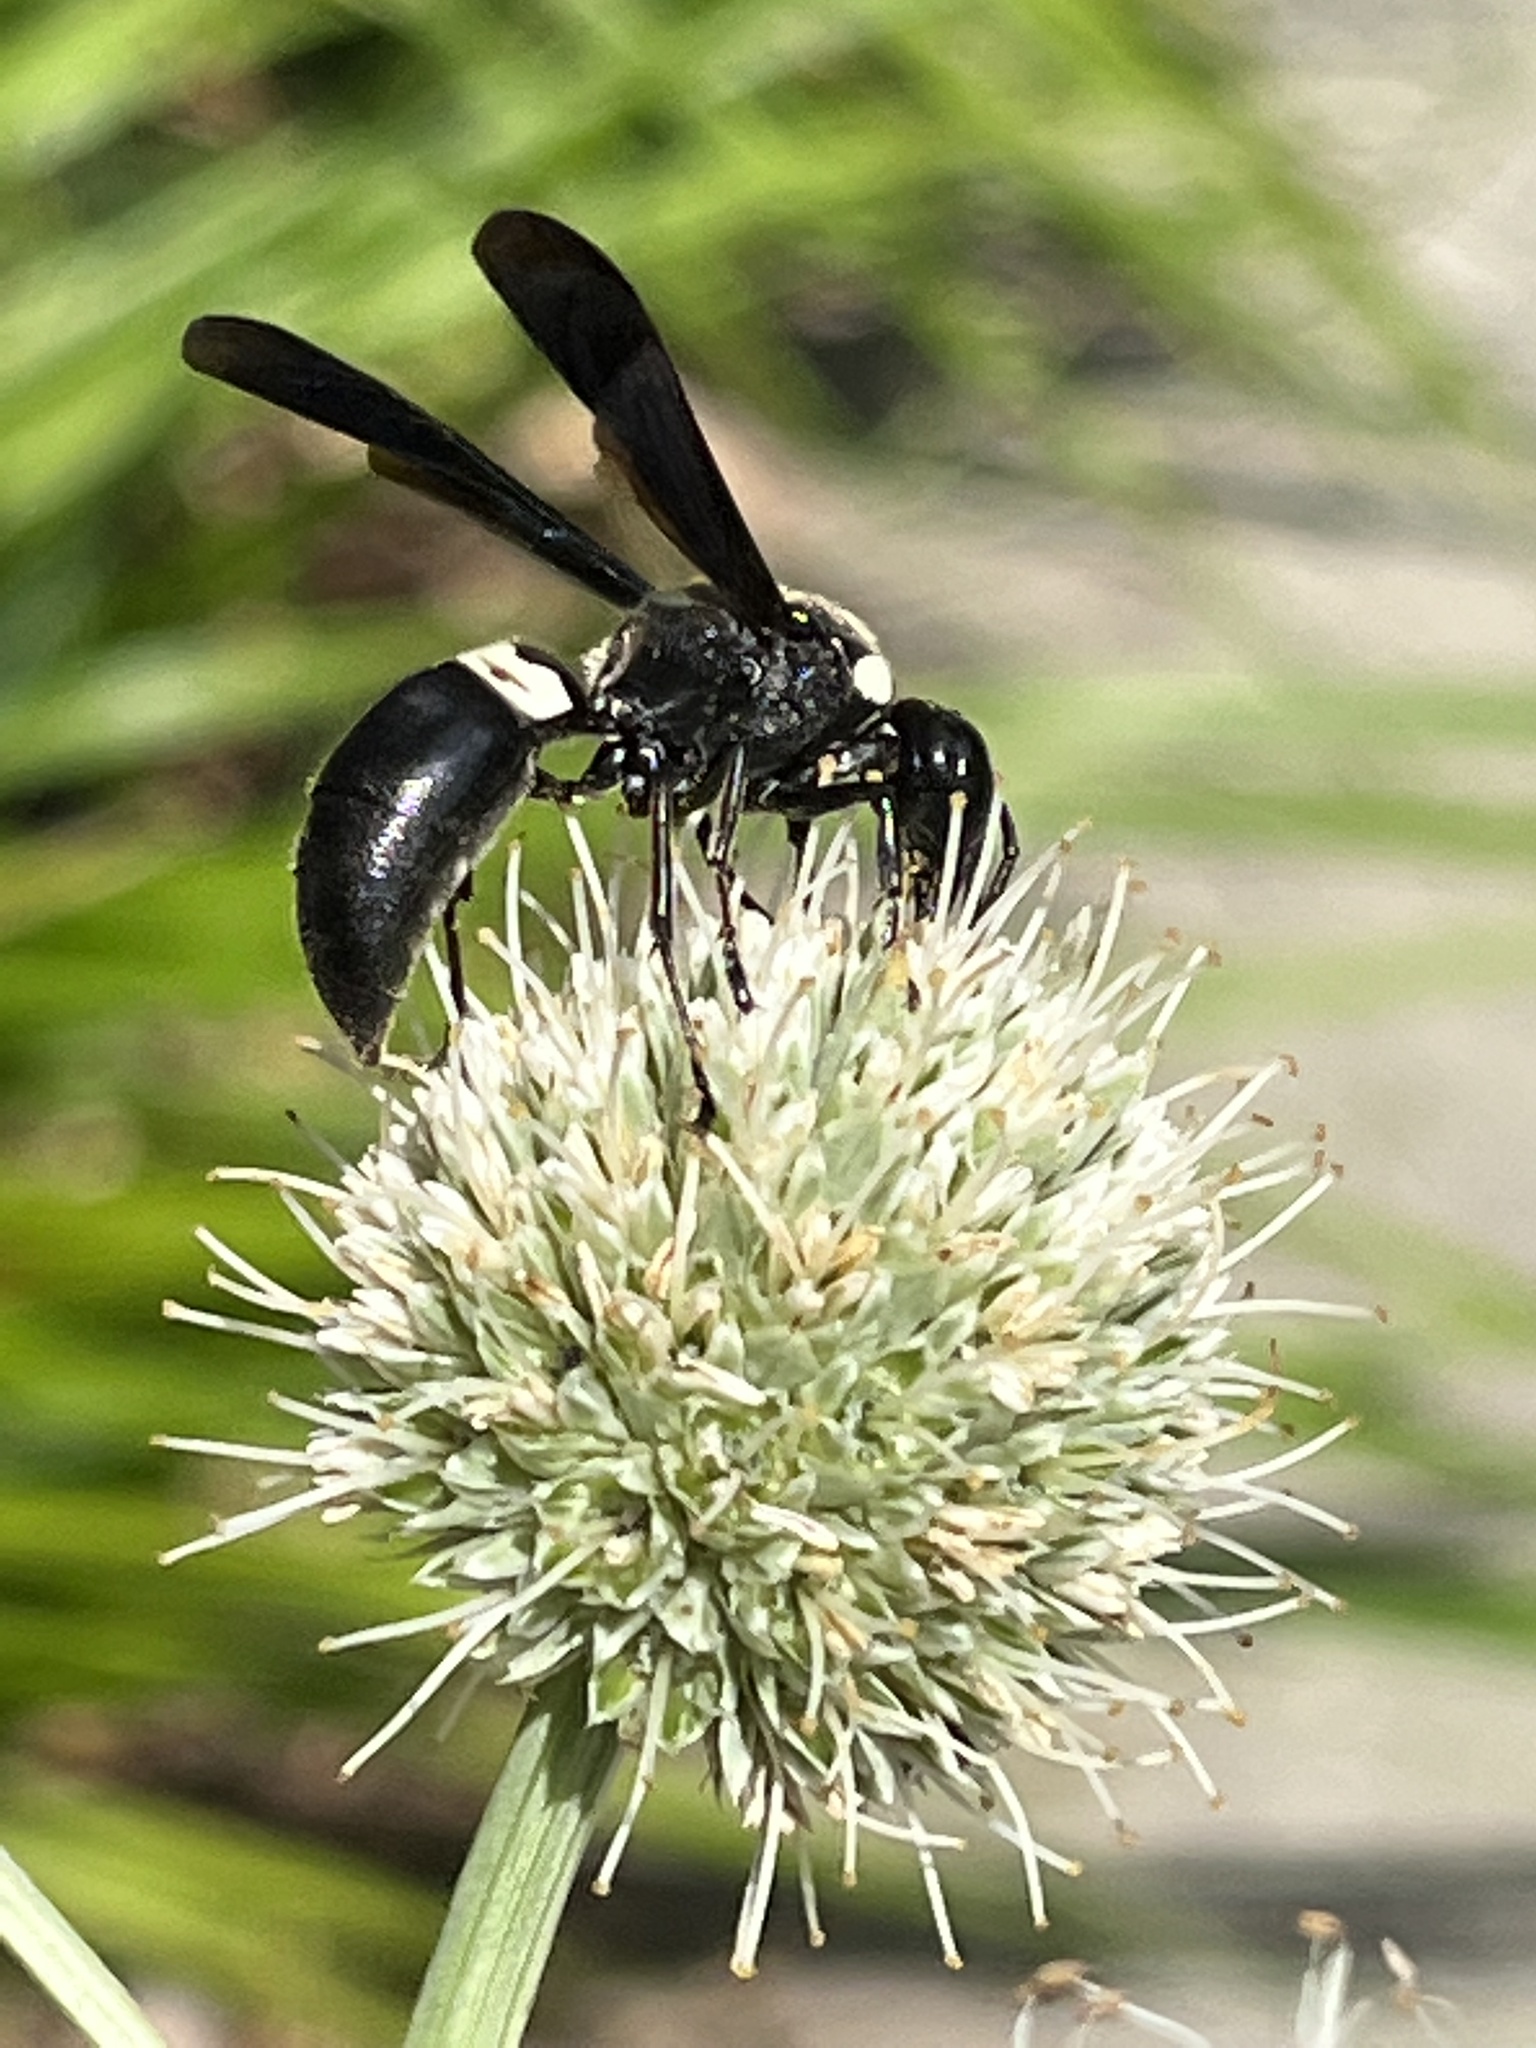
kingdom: Animalia
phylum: Arthropoda
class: Insecta
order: Hymenoptera
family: Eumenidae
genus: Monobia
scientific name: Monobia quadridens
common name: Four-toothed mason wasp
